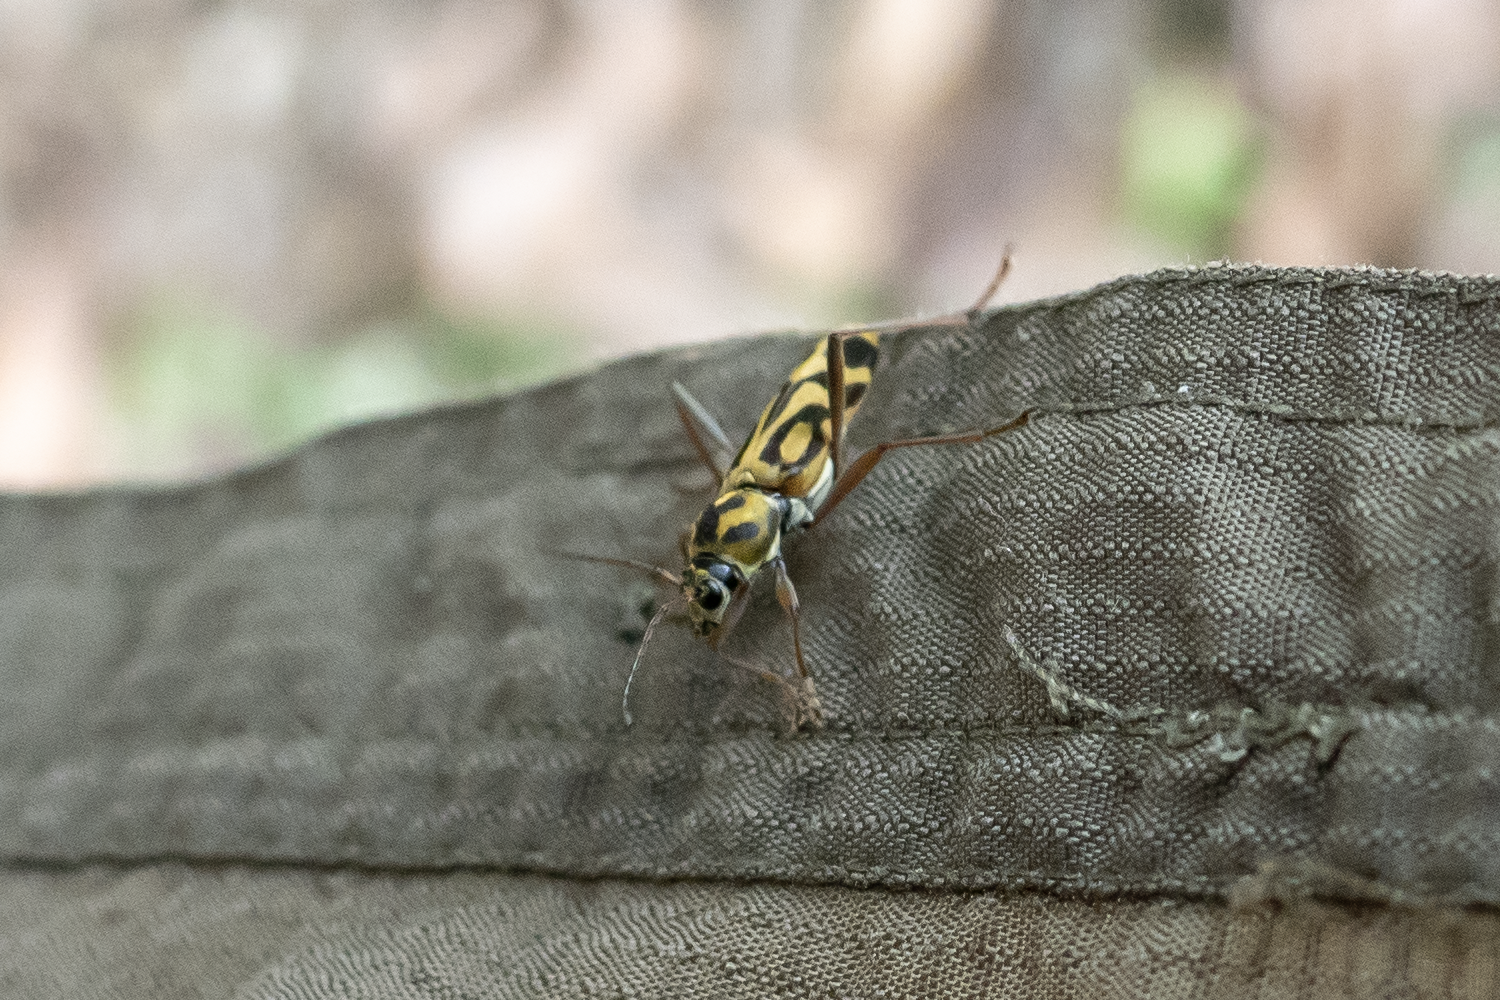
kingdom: Animalia
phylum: Arthropoda
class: Insecta
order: Coleoptera
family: Cerambycidae
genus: Chlorophorus
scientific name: Chlorophorus annularis
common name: Bamboo longhorn beetle
